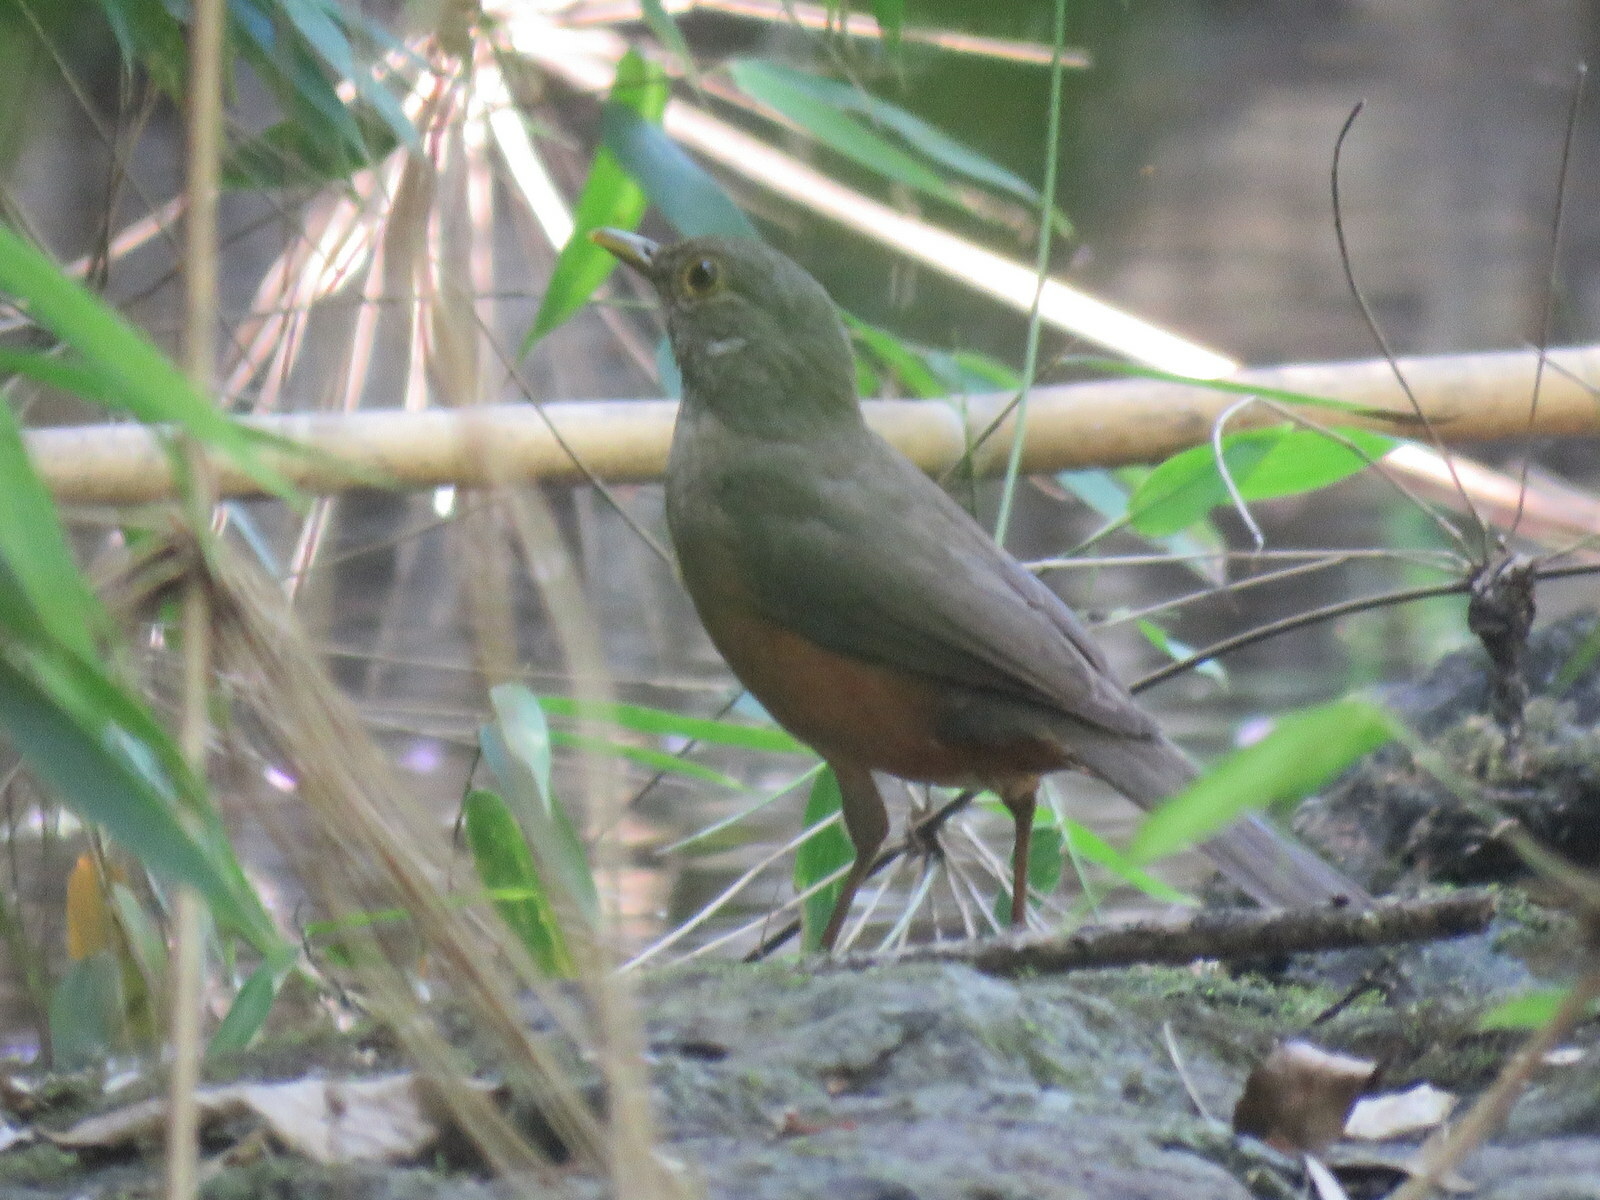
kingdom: Animalia
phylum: Chordata
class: Aves
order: Passeriformes
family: Turdidae
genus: Turdus
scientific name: Turdus rufiventris
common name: Rufous-bellied thrush
